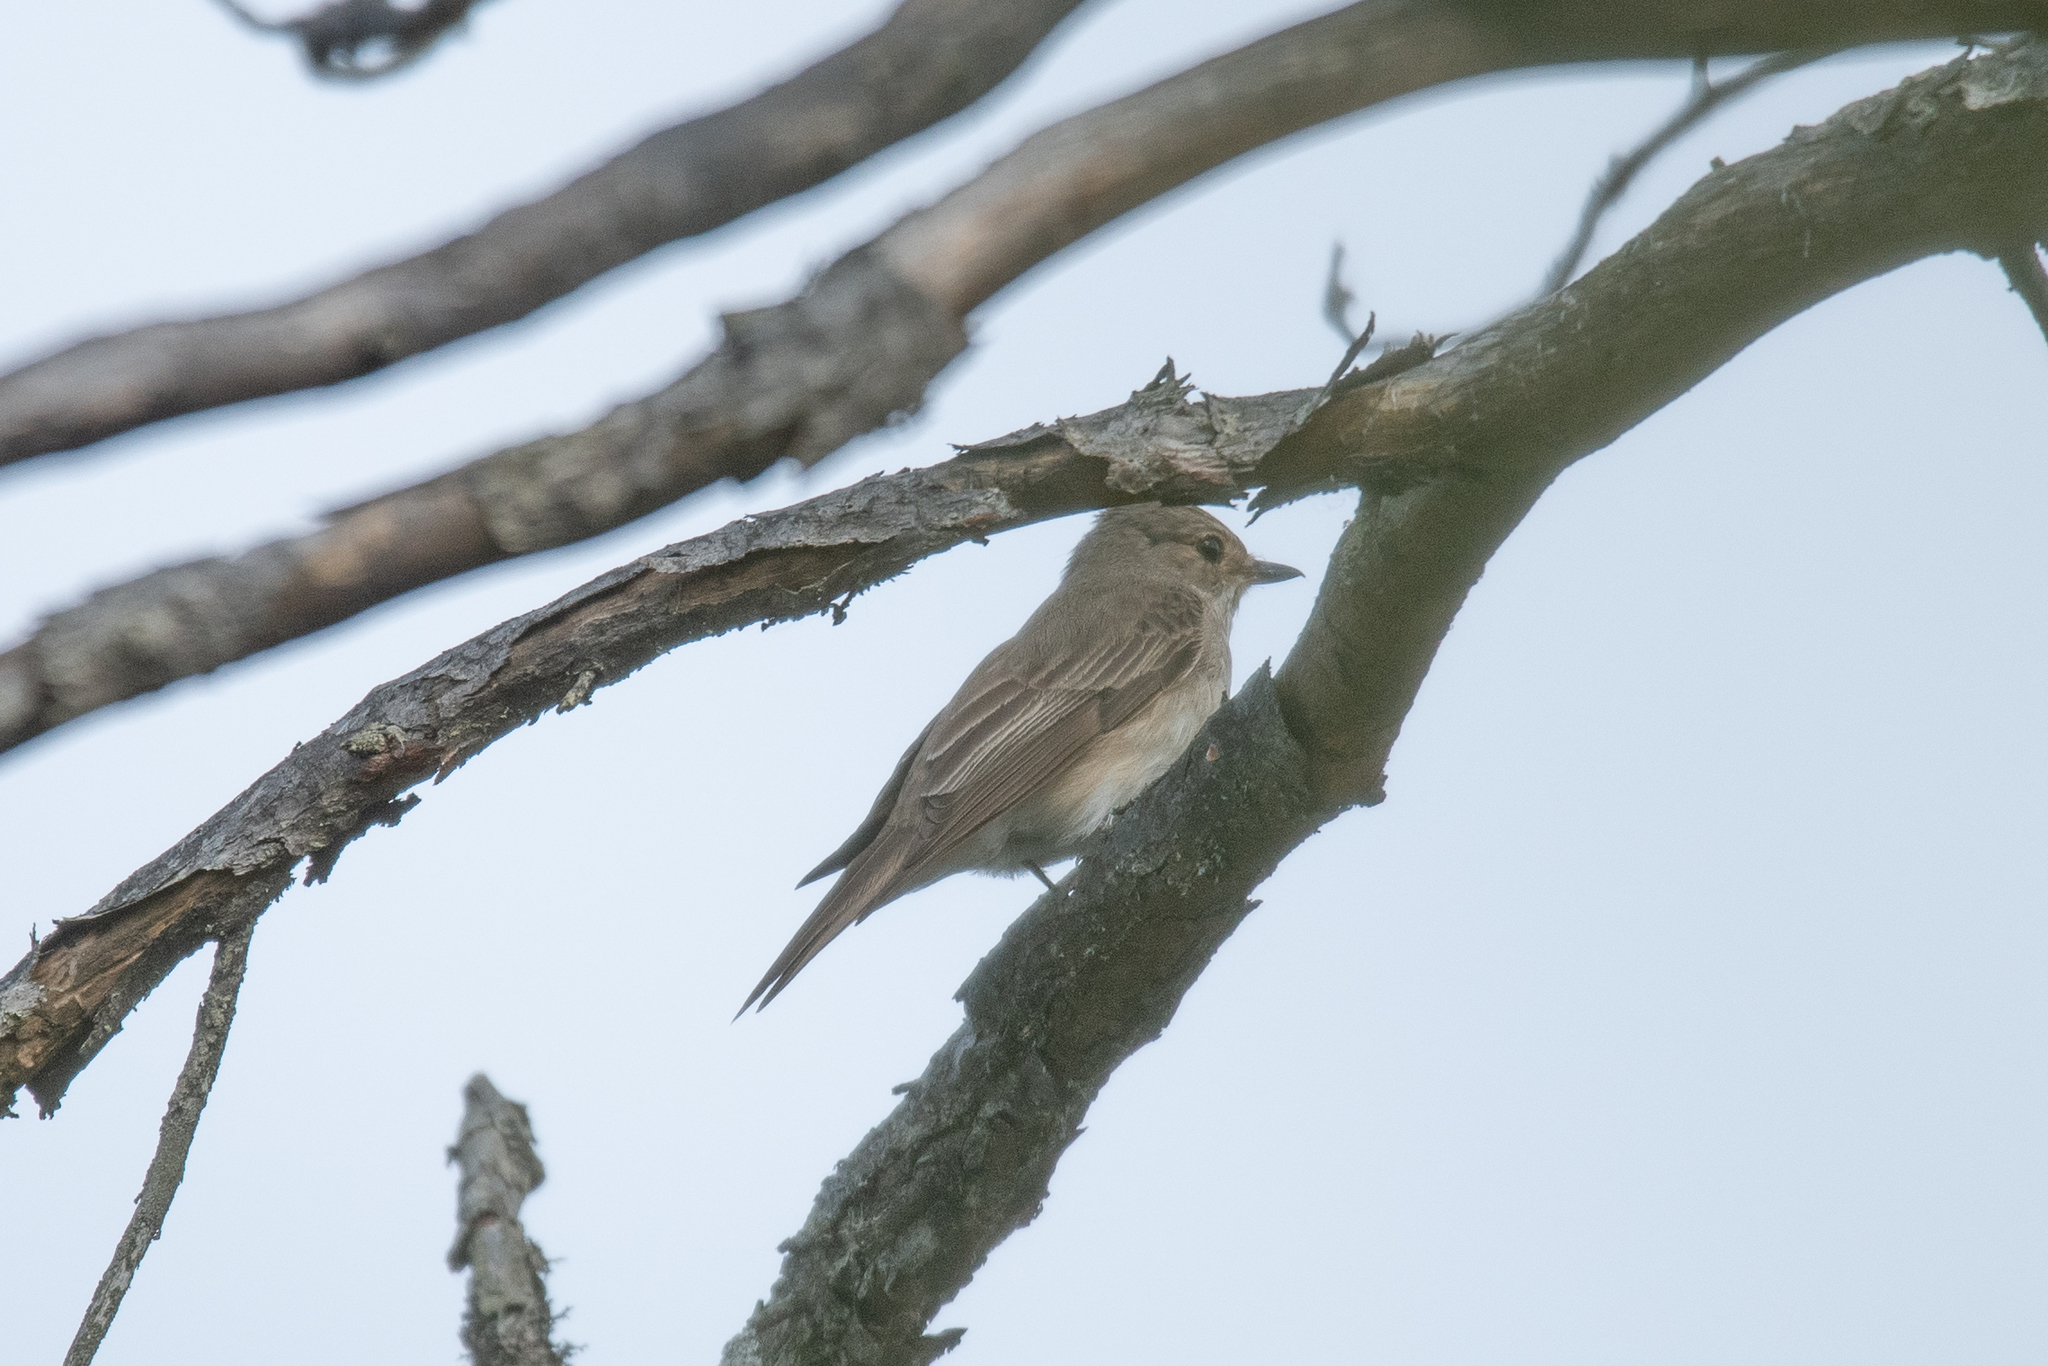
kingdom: Animalia
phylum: Chordata
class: Aves
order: Passeriformes
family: Muscicapidae
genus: Muscicapa
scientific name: Muscicapa striata
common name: Spotted flycatcher
